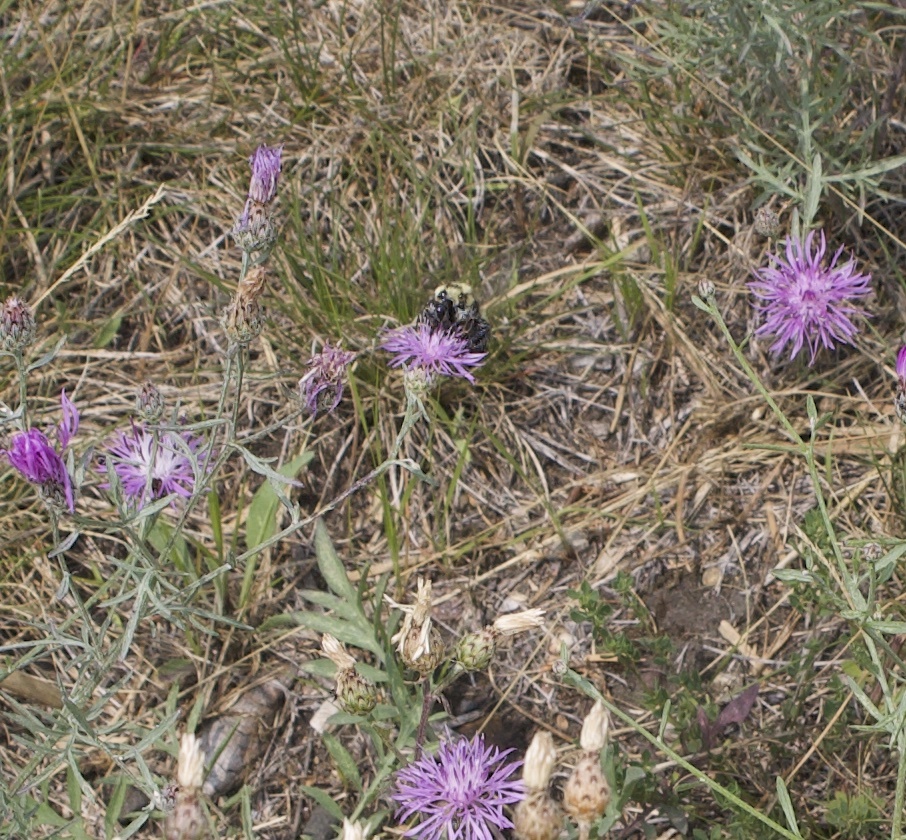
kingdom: Animalia
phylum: Arthropoda
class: Insecta
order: Hymenoptera
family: Apidae
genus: Bombus
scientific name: Bombus rufocinctus
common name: Red-belted bumble bee
